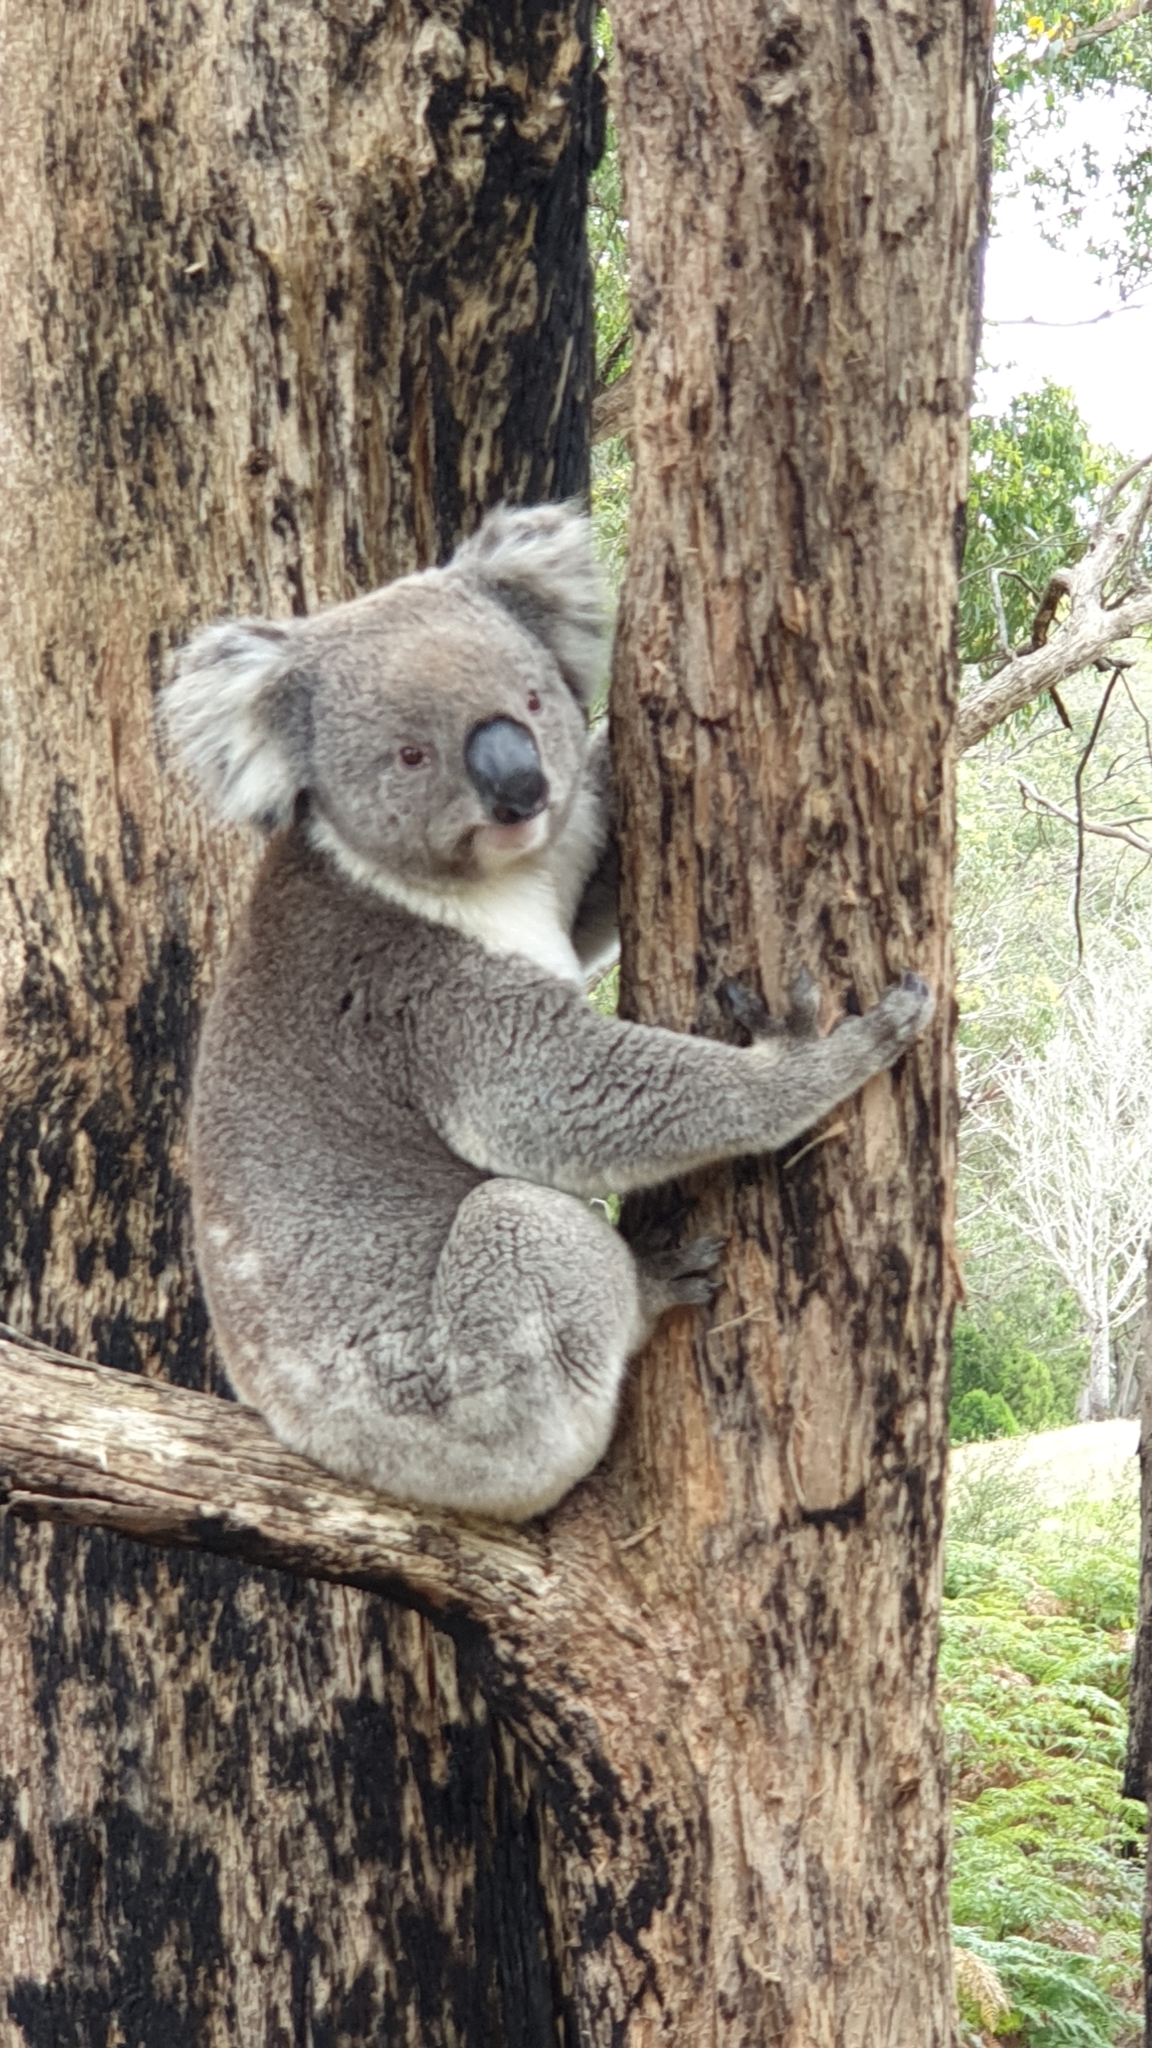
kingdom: Animalia
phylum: Chordata
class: Mammalia
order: Diprotodontia
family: Phascolarctidae
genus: Phascolarctos
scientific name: Phascolarctos cinereus
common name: Koala
